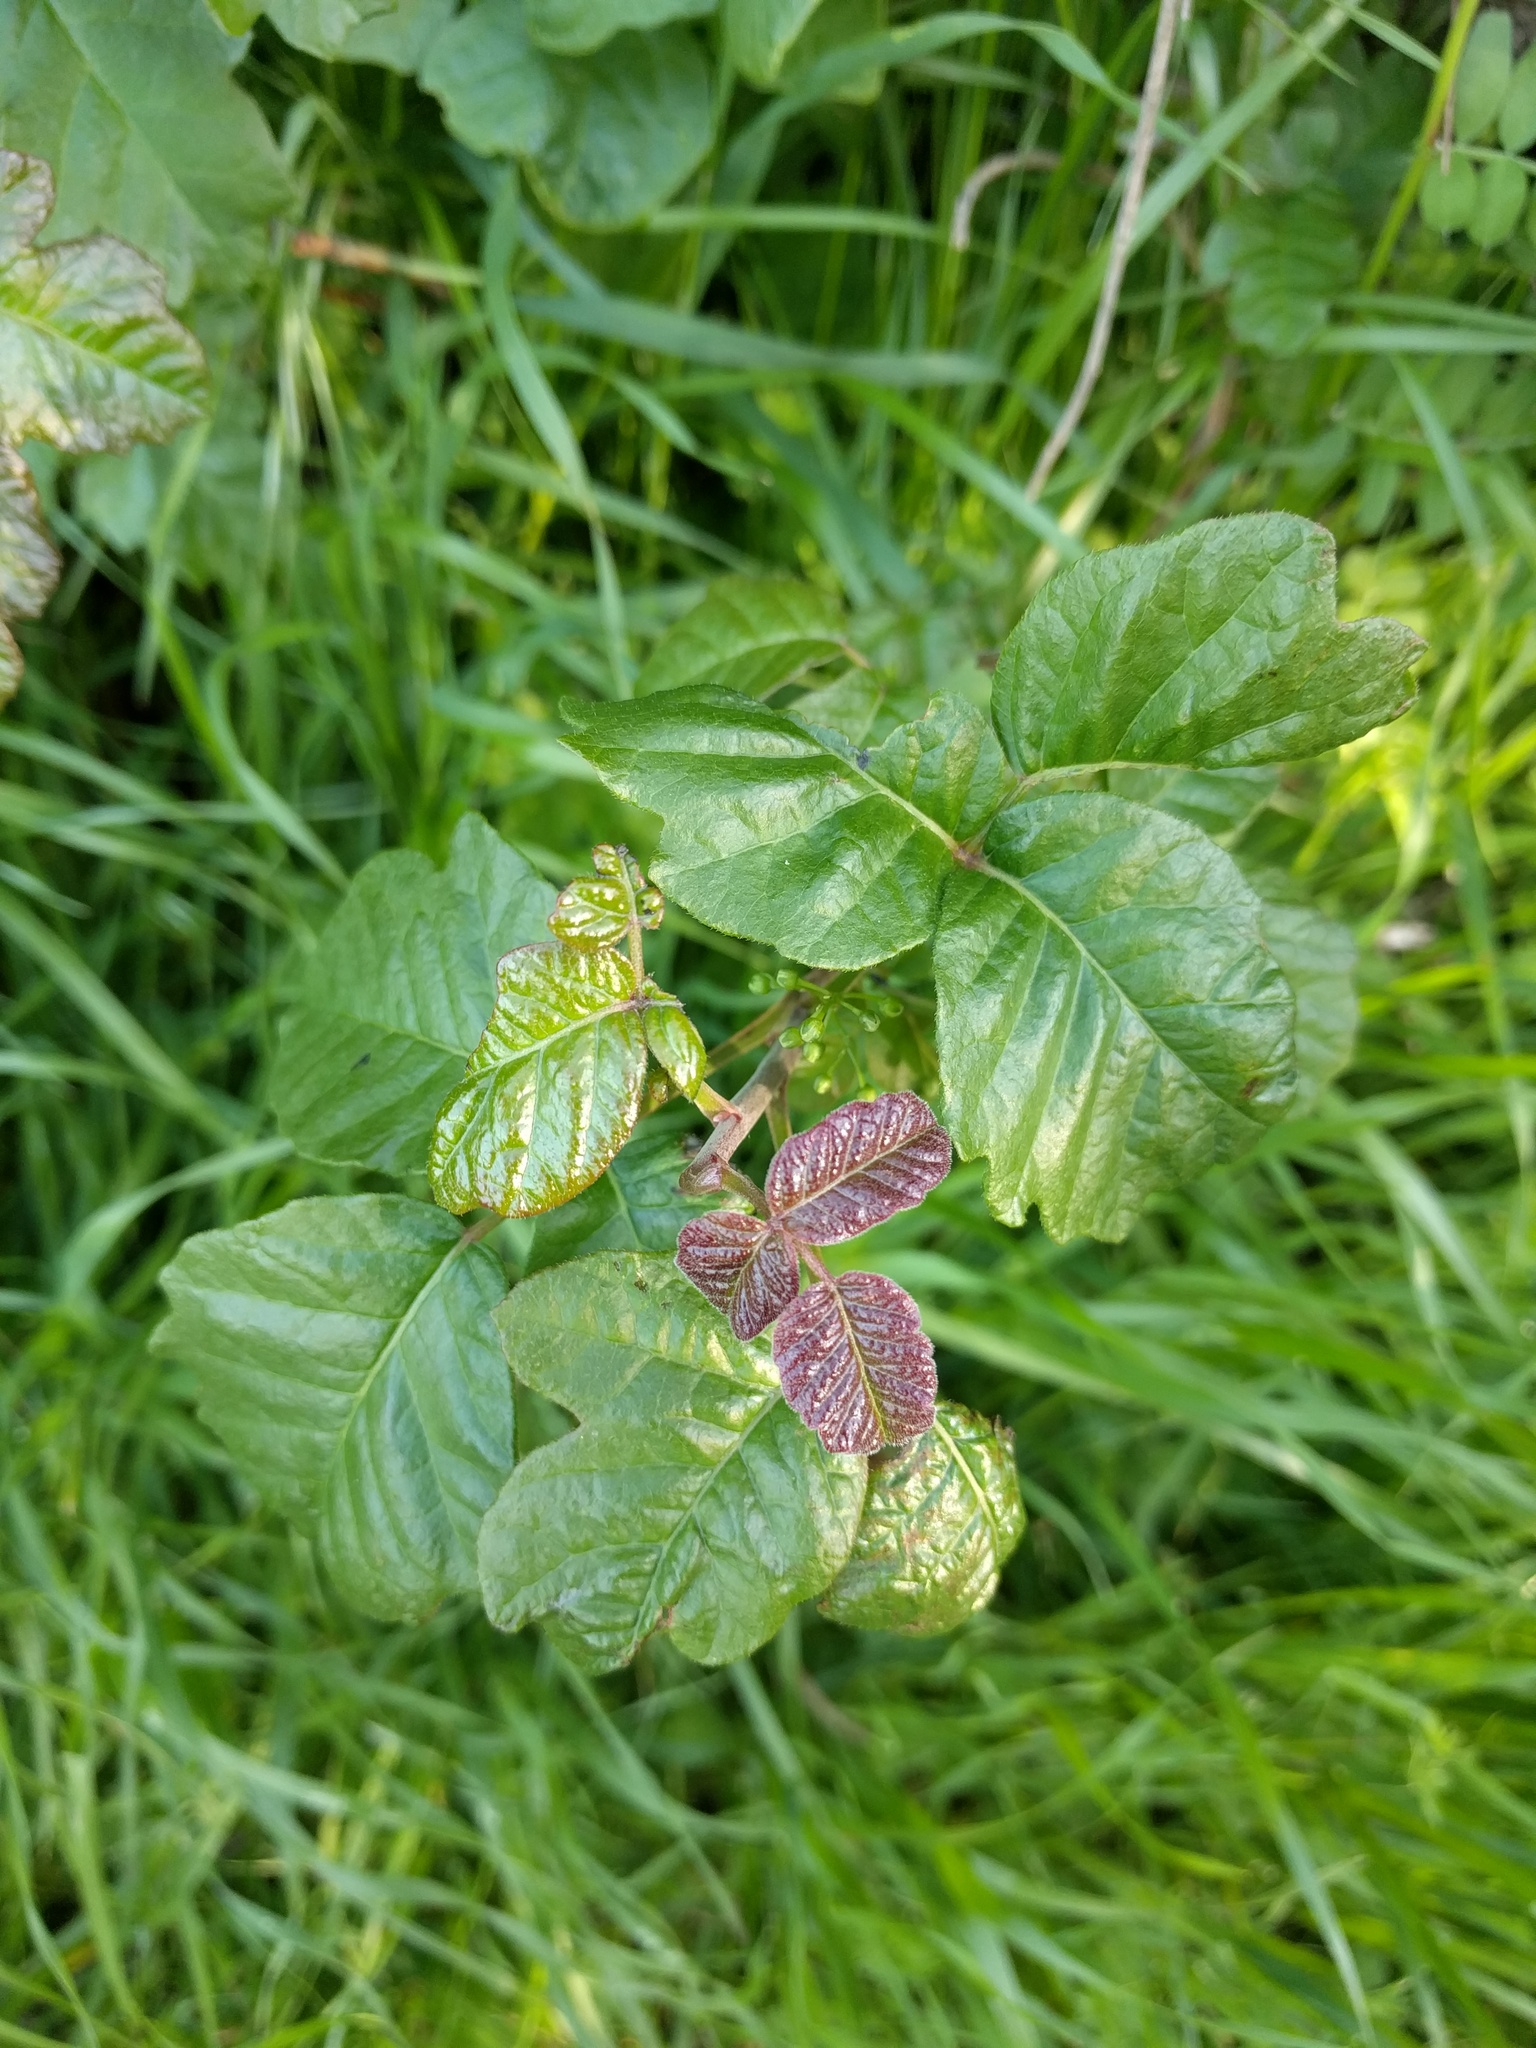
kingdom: Plantae
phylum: Tracheophyta
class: Magnoliopsida
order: Sapindales
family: Anacardiaceae
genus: Toxicodendron
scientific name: Toxicodendron diversilobum
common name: Pacific poison-oak
